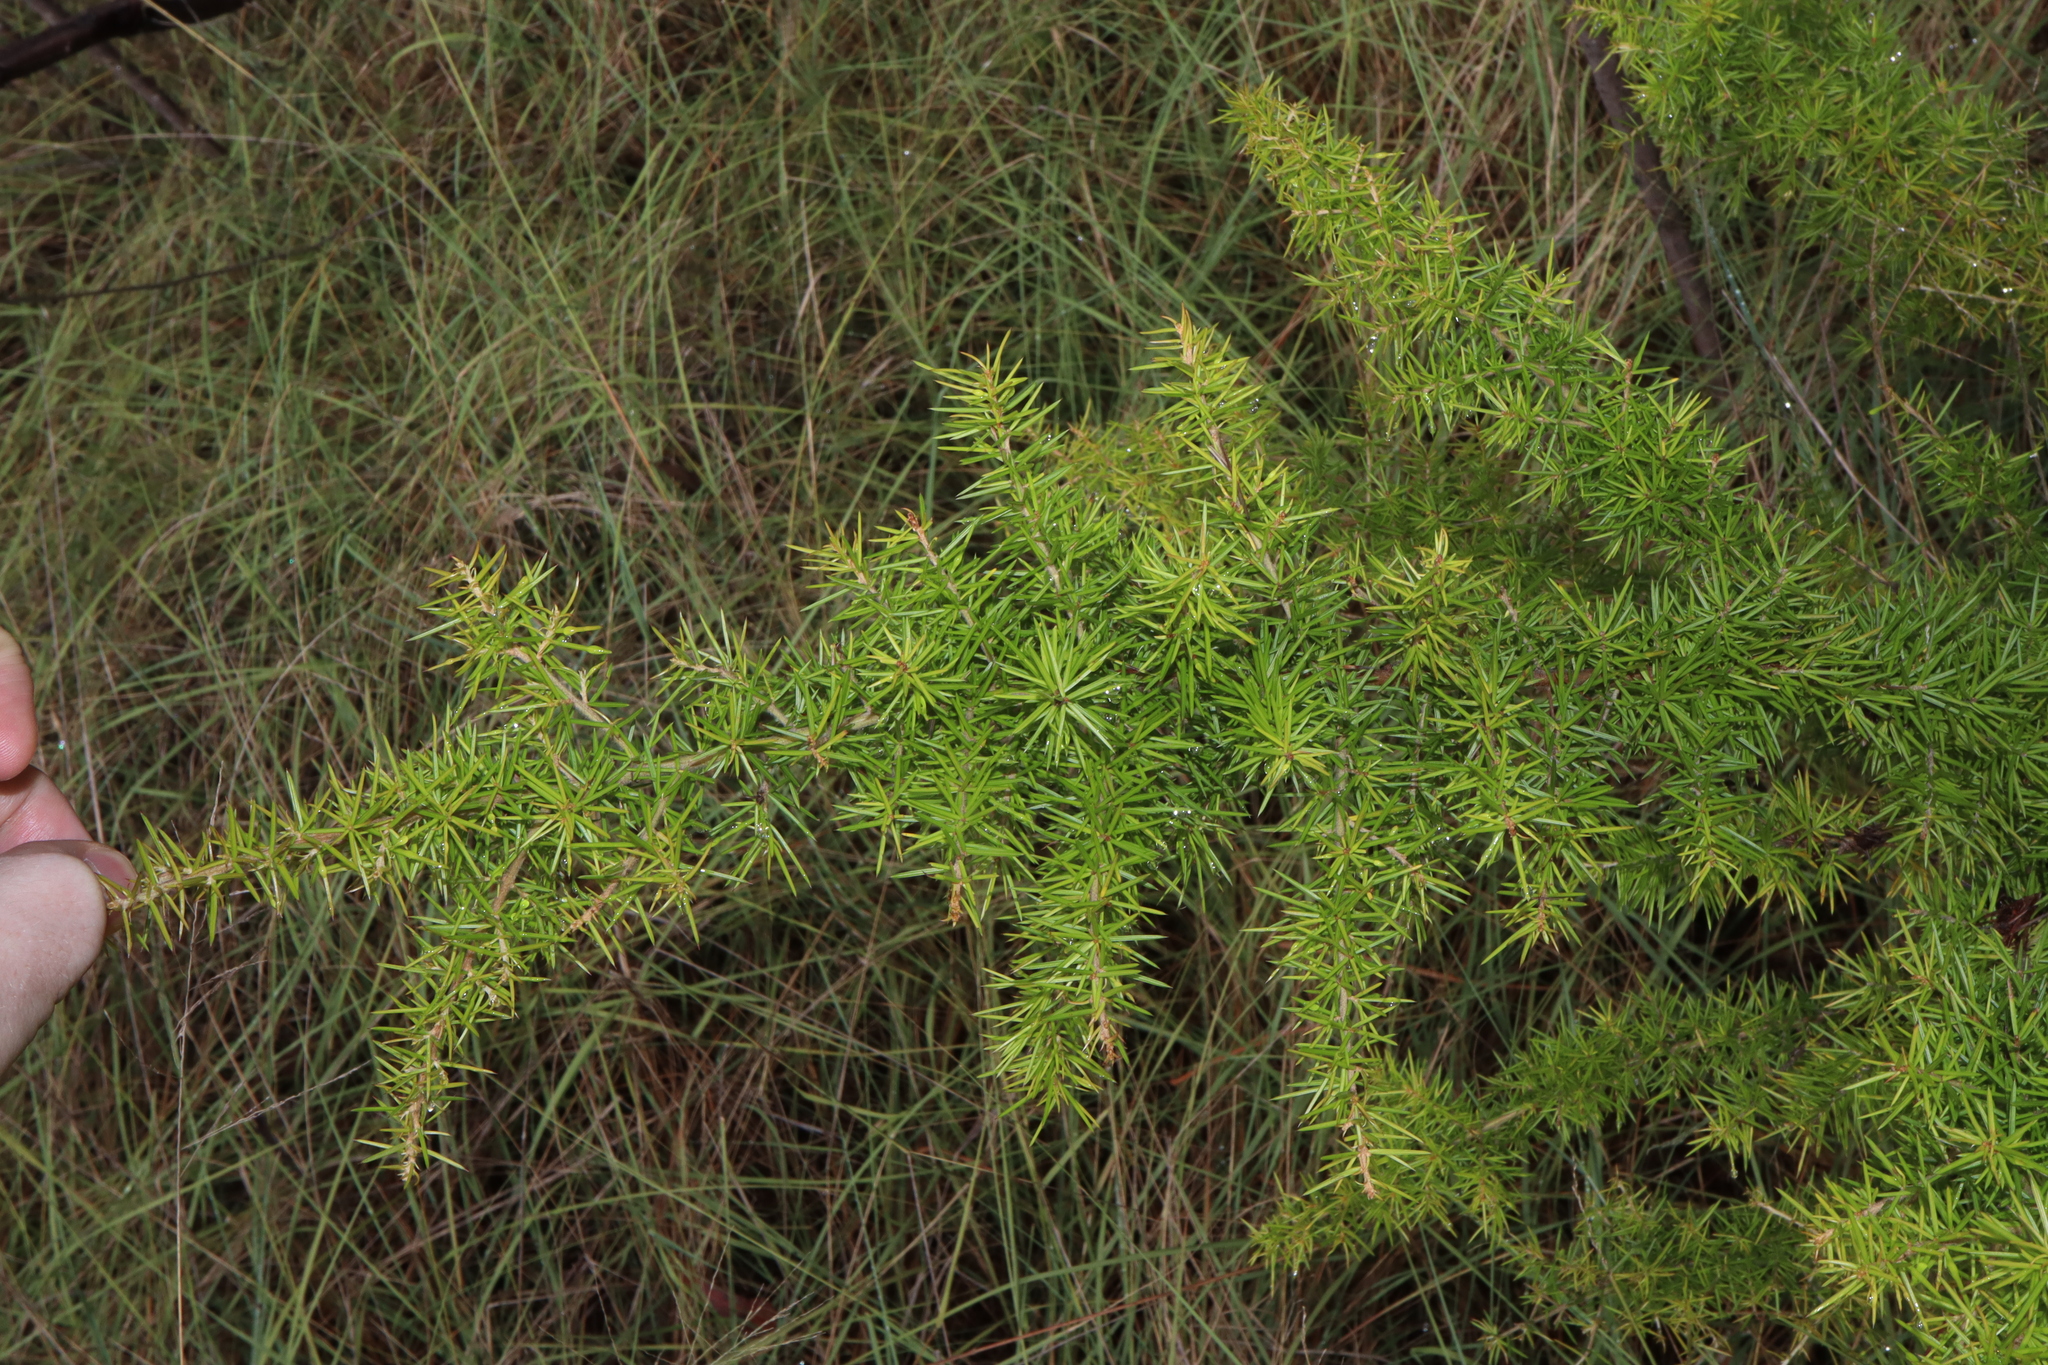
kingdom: Plantae
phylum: Tracheophyta
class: Magnoliopsida
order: Proteales
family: Proteaceae
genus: Grevillea
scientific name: Grevillea juniperina
